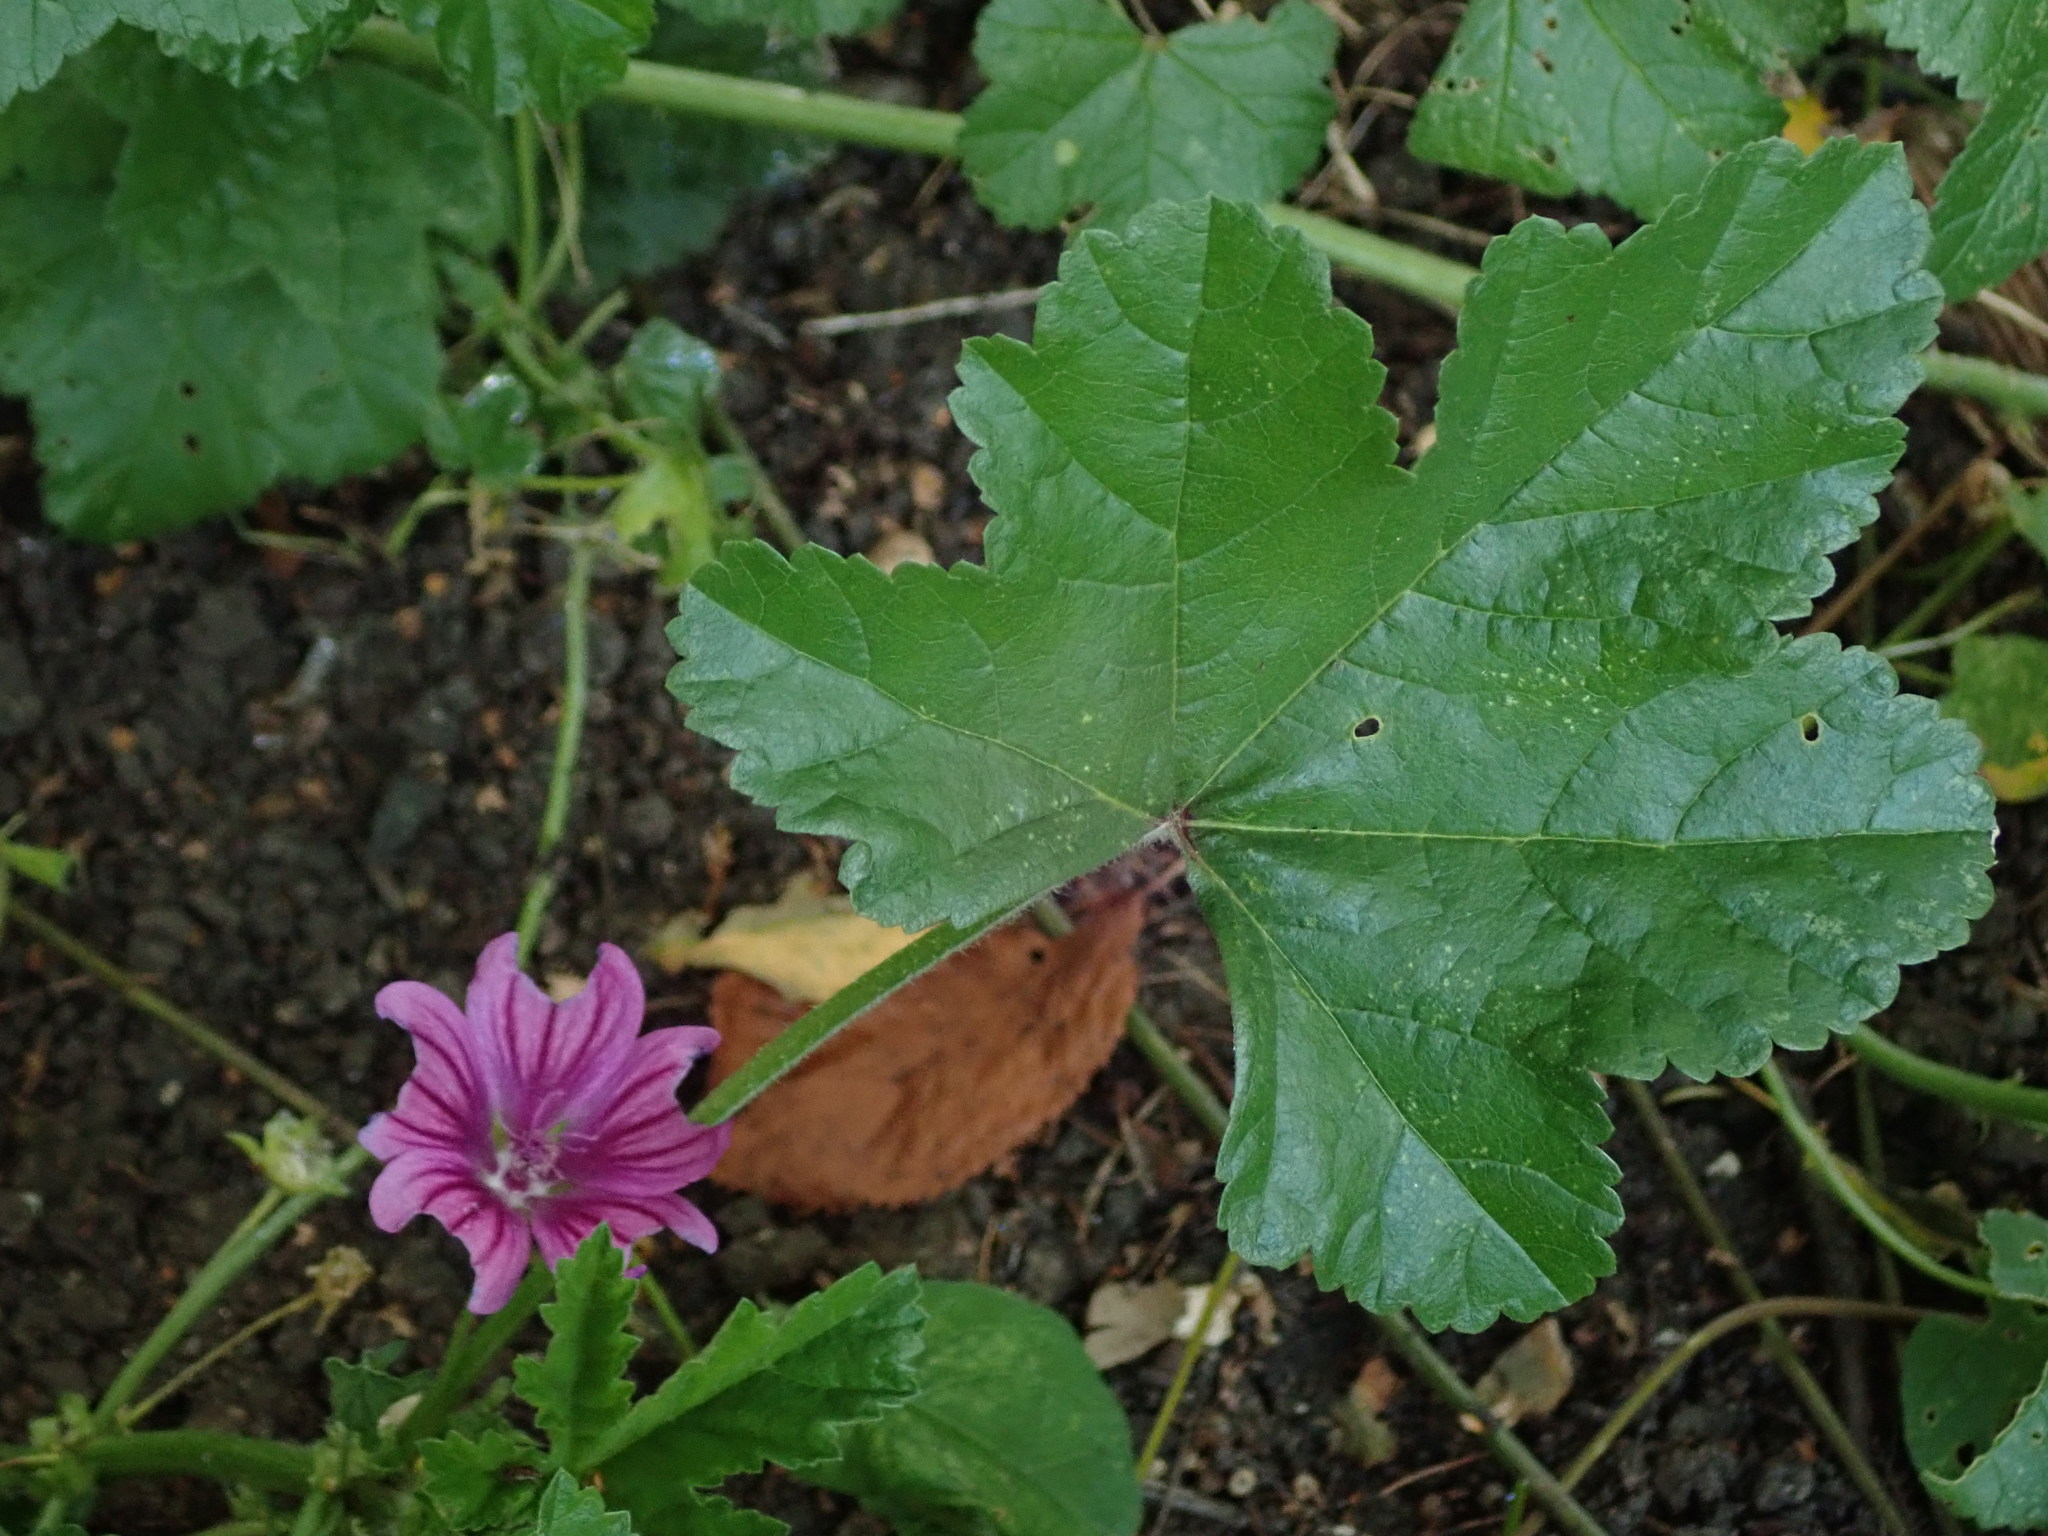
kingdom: Plantae
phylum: Tracheophyta
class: Magnoliopsida
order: Malvales
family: Malvaceae
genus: Malva
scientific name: Malva sylvestris
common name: Common mallow
